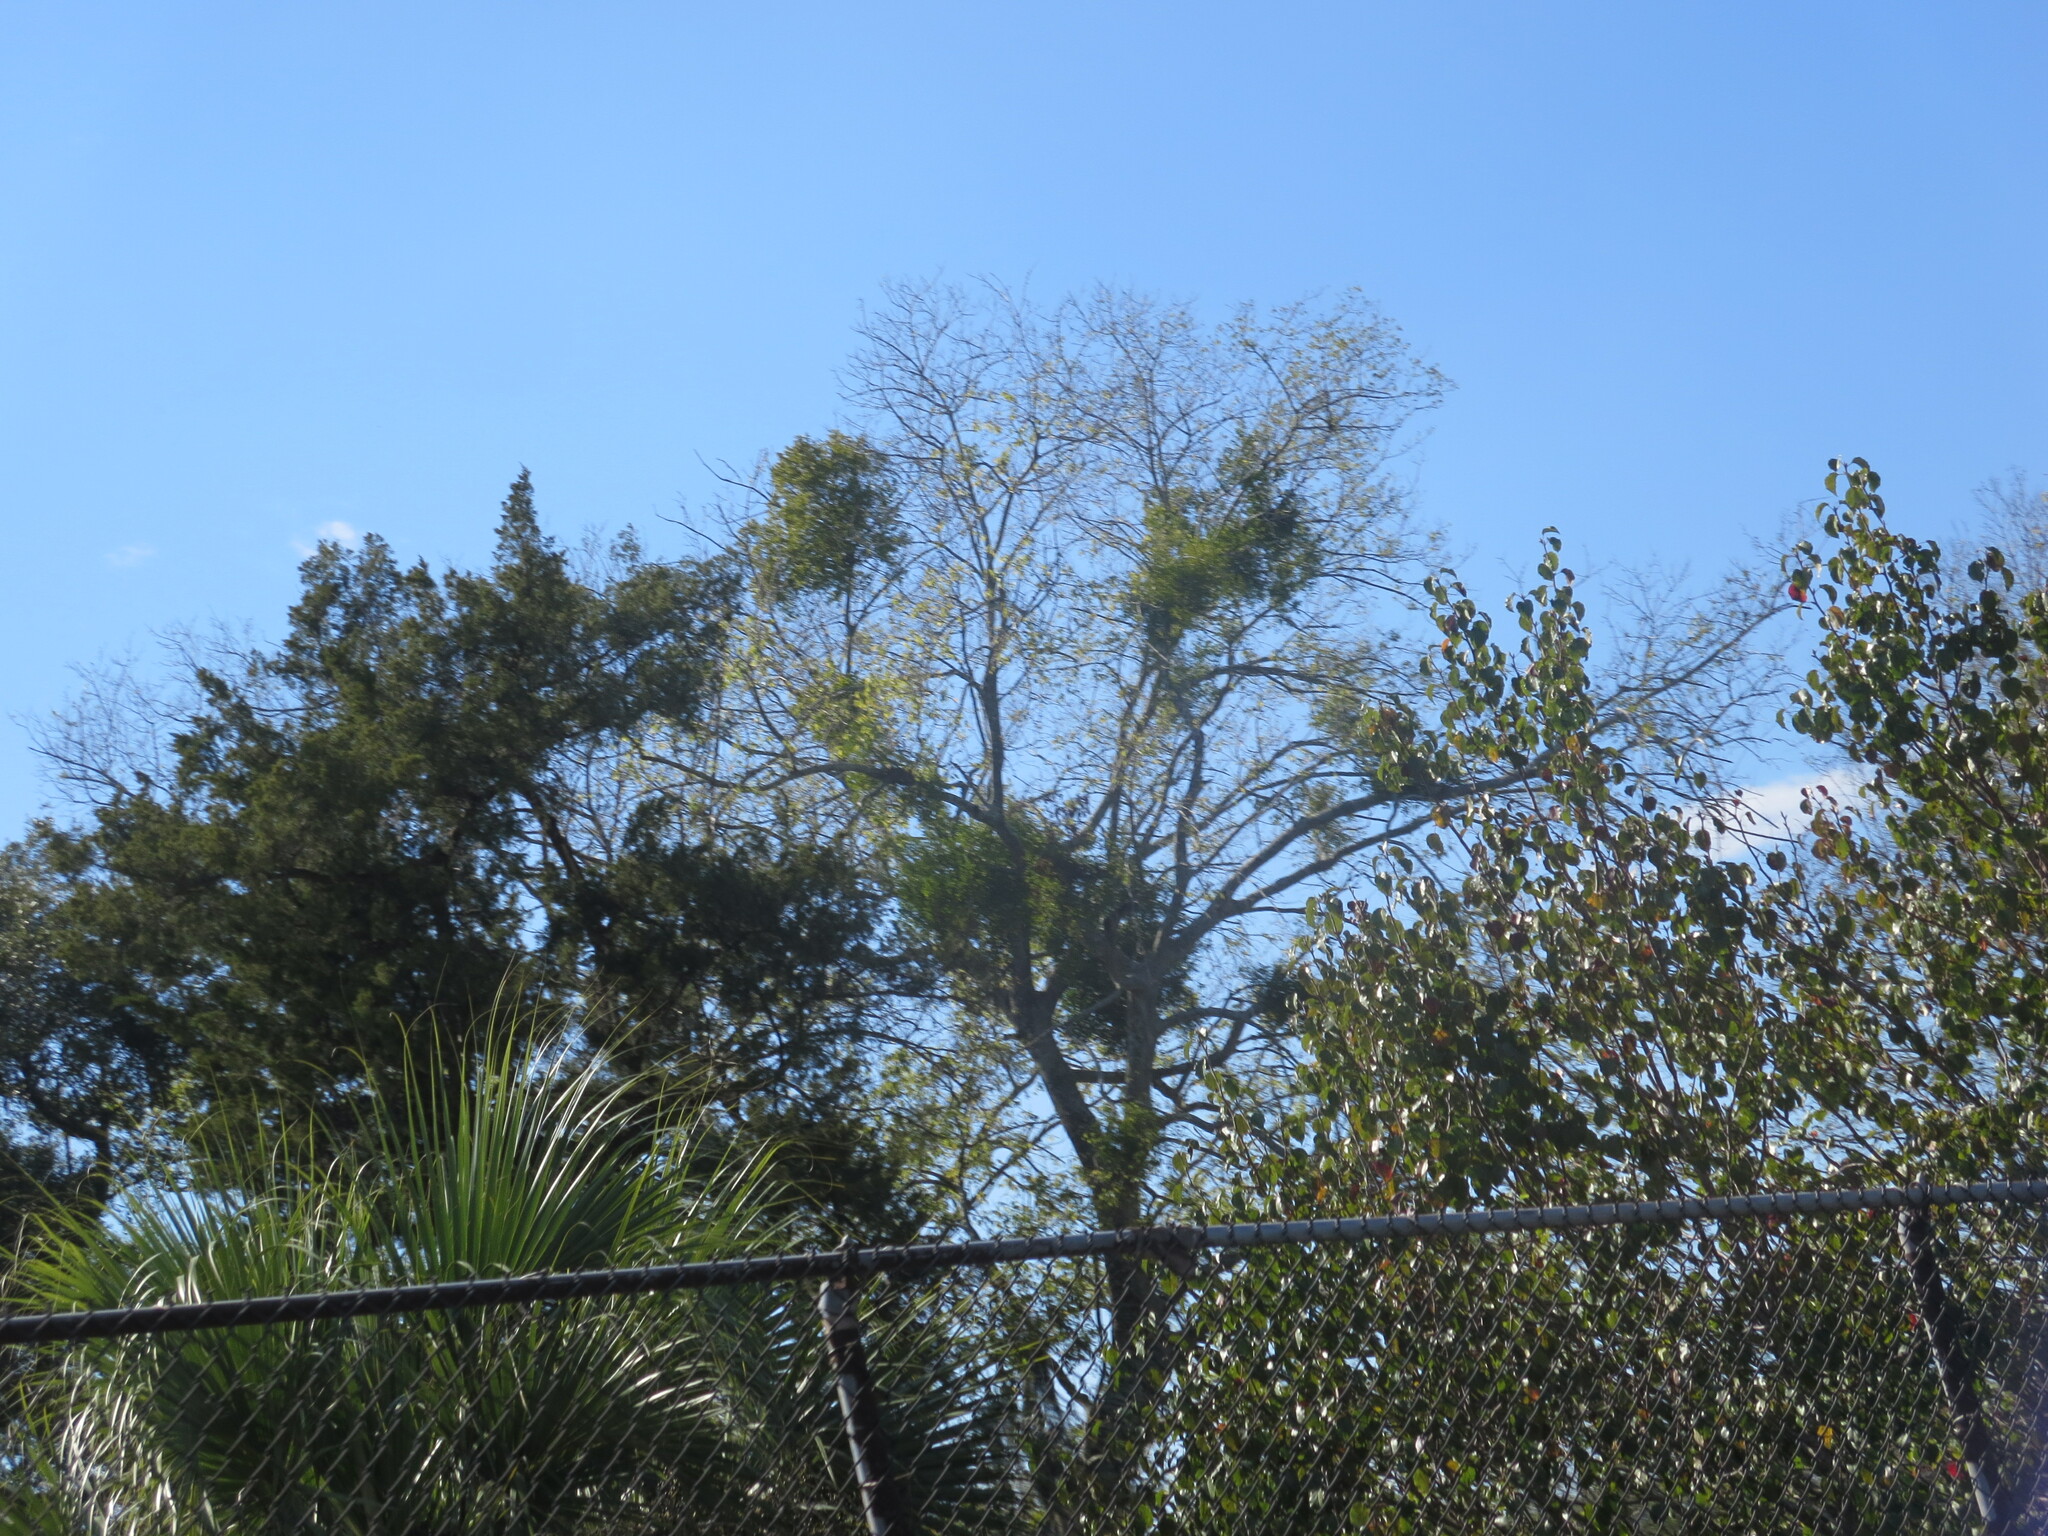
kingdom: Plantae
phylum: Tracheophyta
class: Magnoliopsida
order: Santalales
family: Viscaceae
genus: Phoradendron
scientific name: Phoradendron leucarpum
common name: Pacific mistletoe
